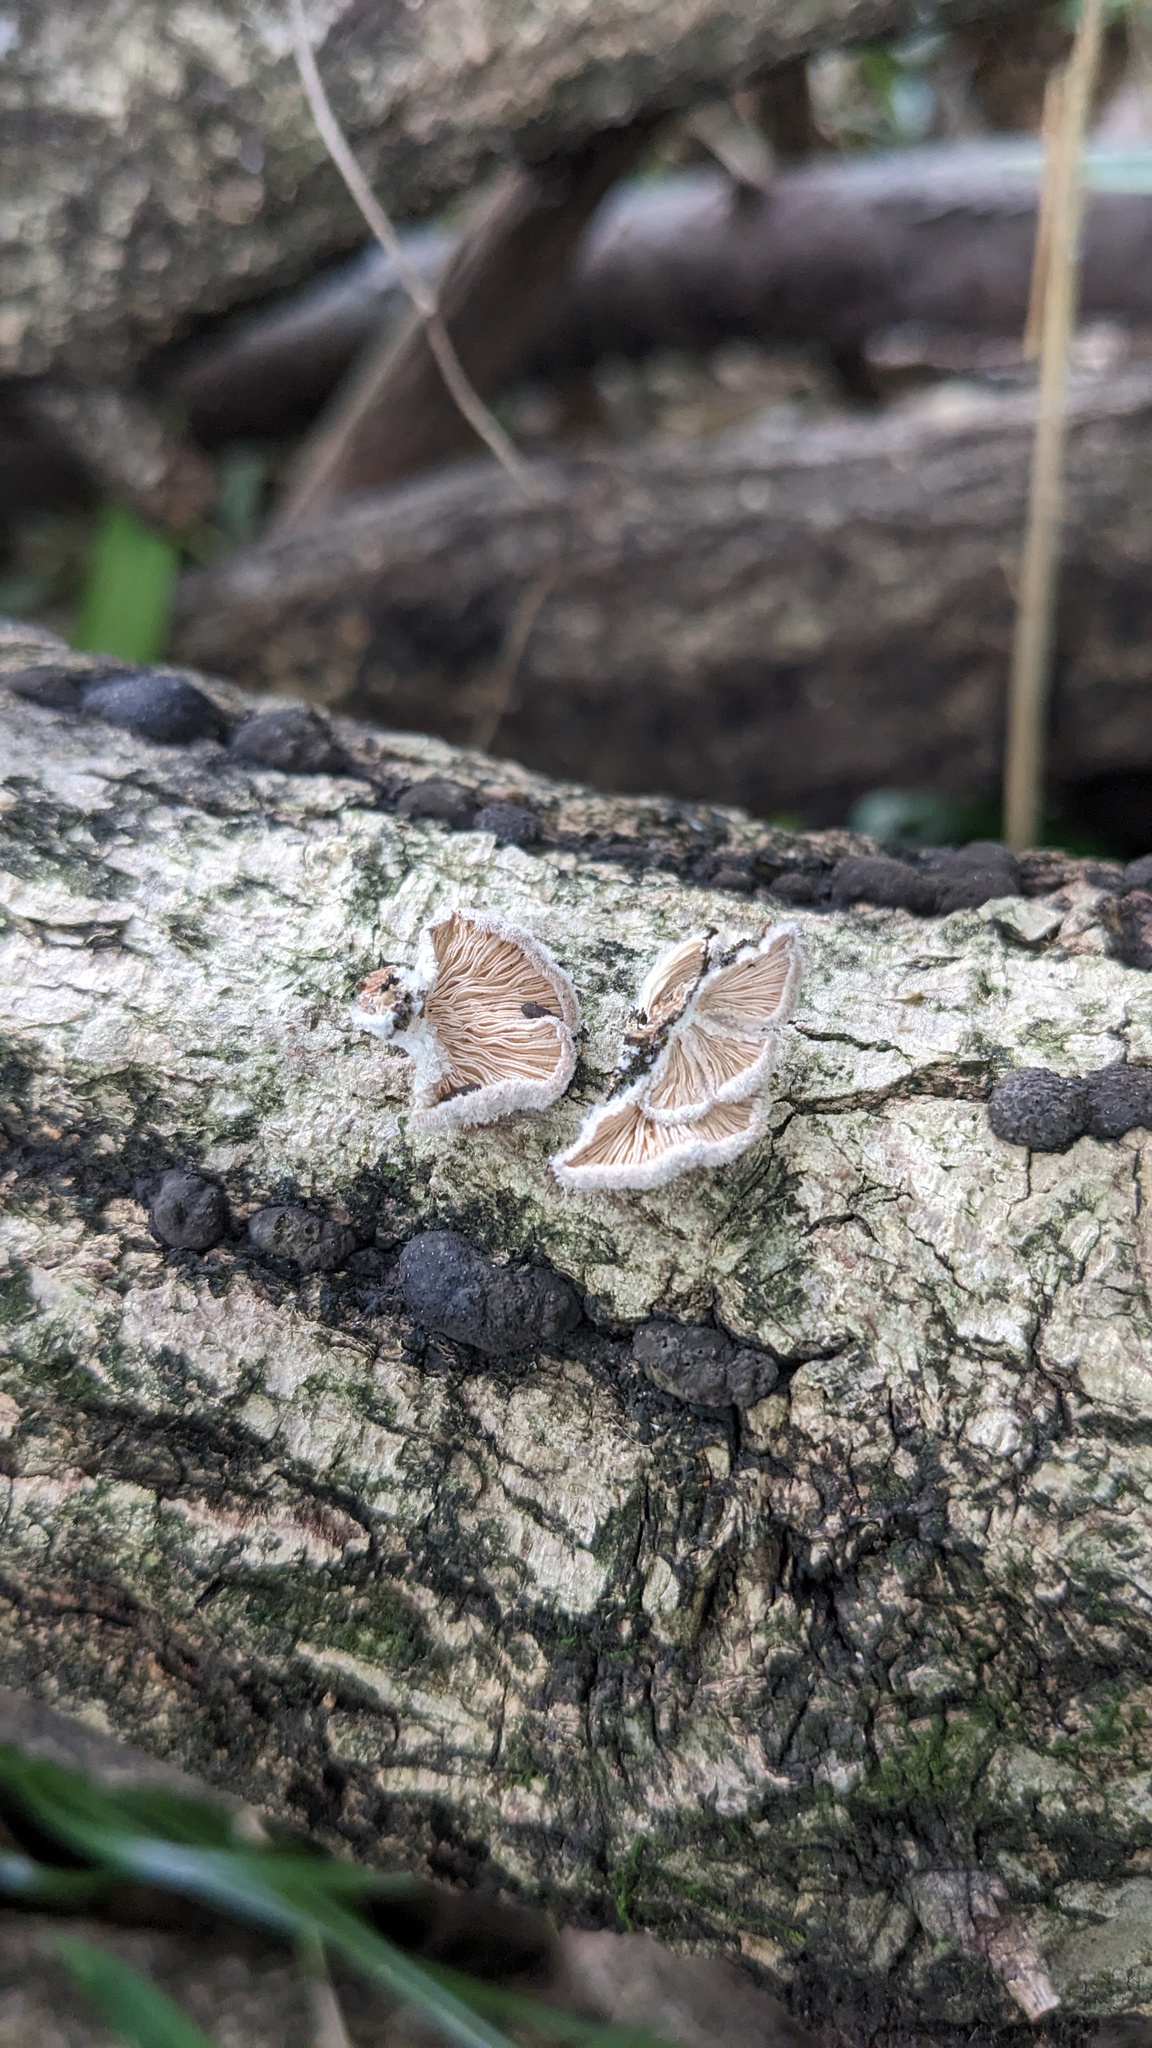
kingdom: Fungi
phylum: Basidiomycota
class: Agaricomycetes
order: Agaricales
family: Schizophyllaceae
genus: Schizophyllum
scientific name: Schizophyllum commune
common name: Common porecrust
